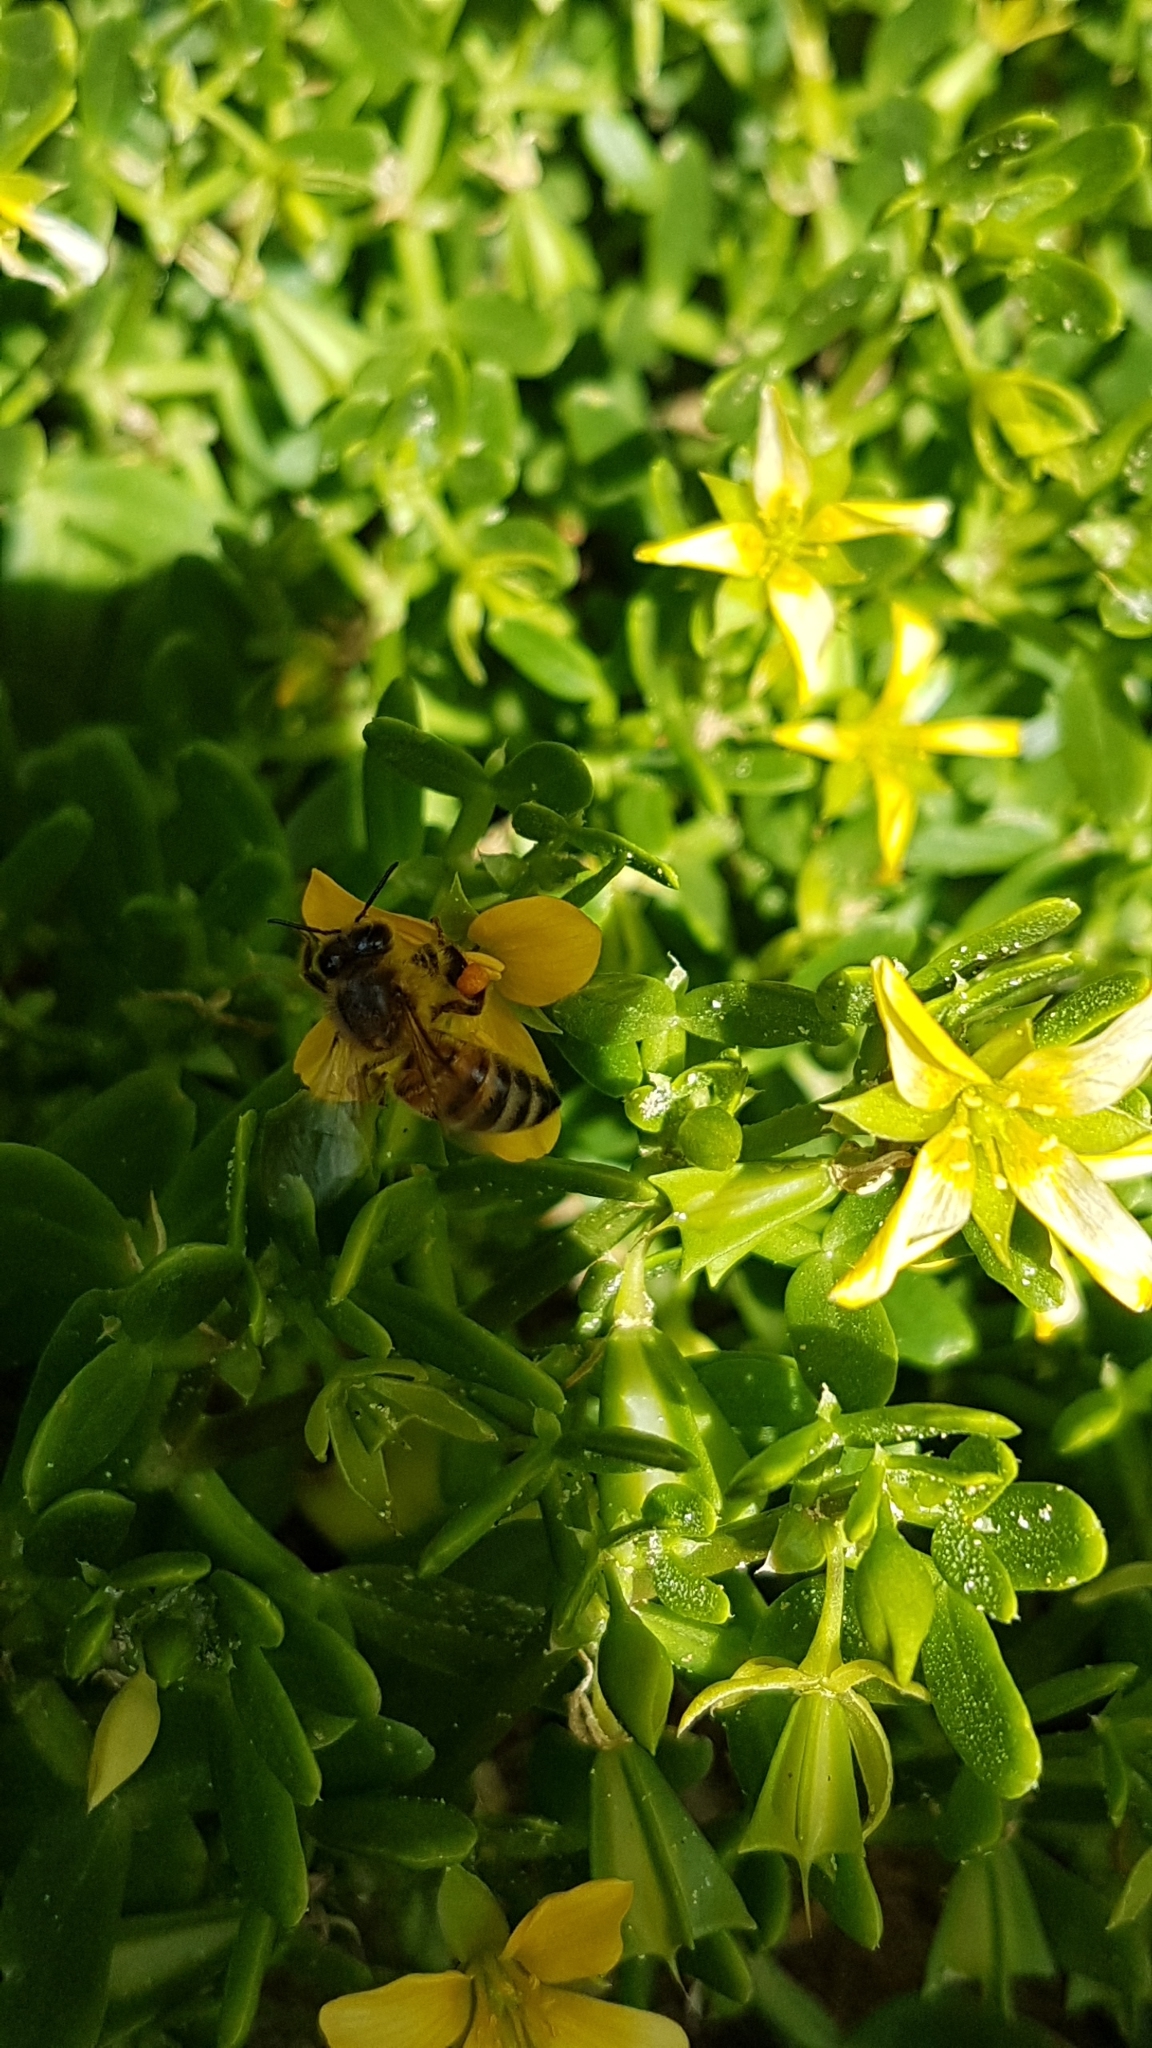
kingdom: Animalia
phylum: Arthropoda
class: Insecta
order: Hymenoptera
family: Apidae
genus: Apis
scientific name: Apis mellifera
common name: Honey bee
